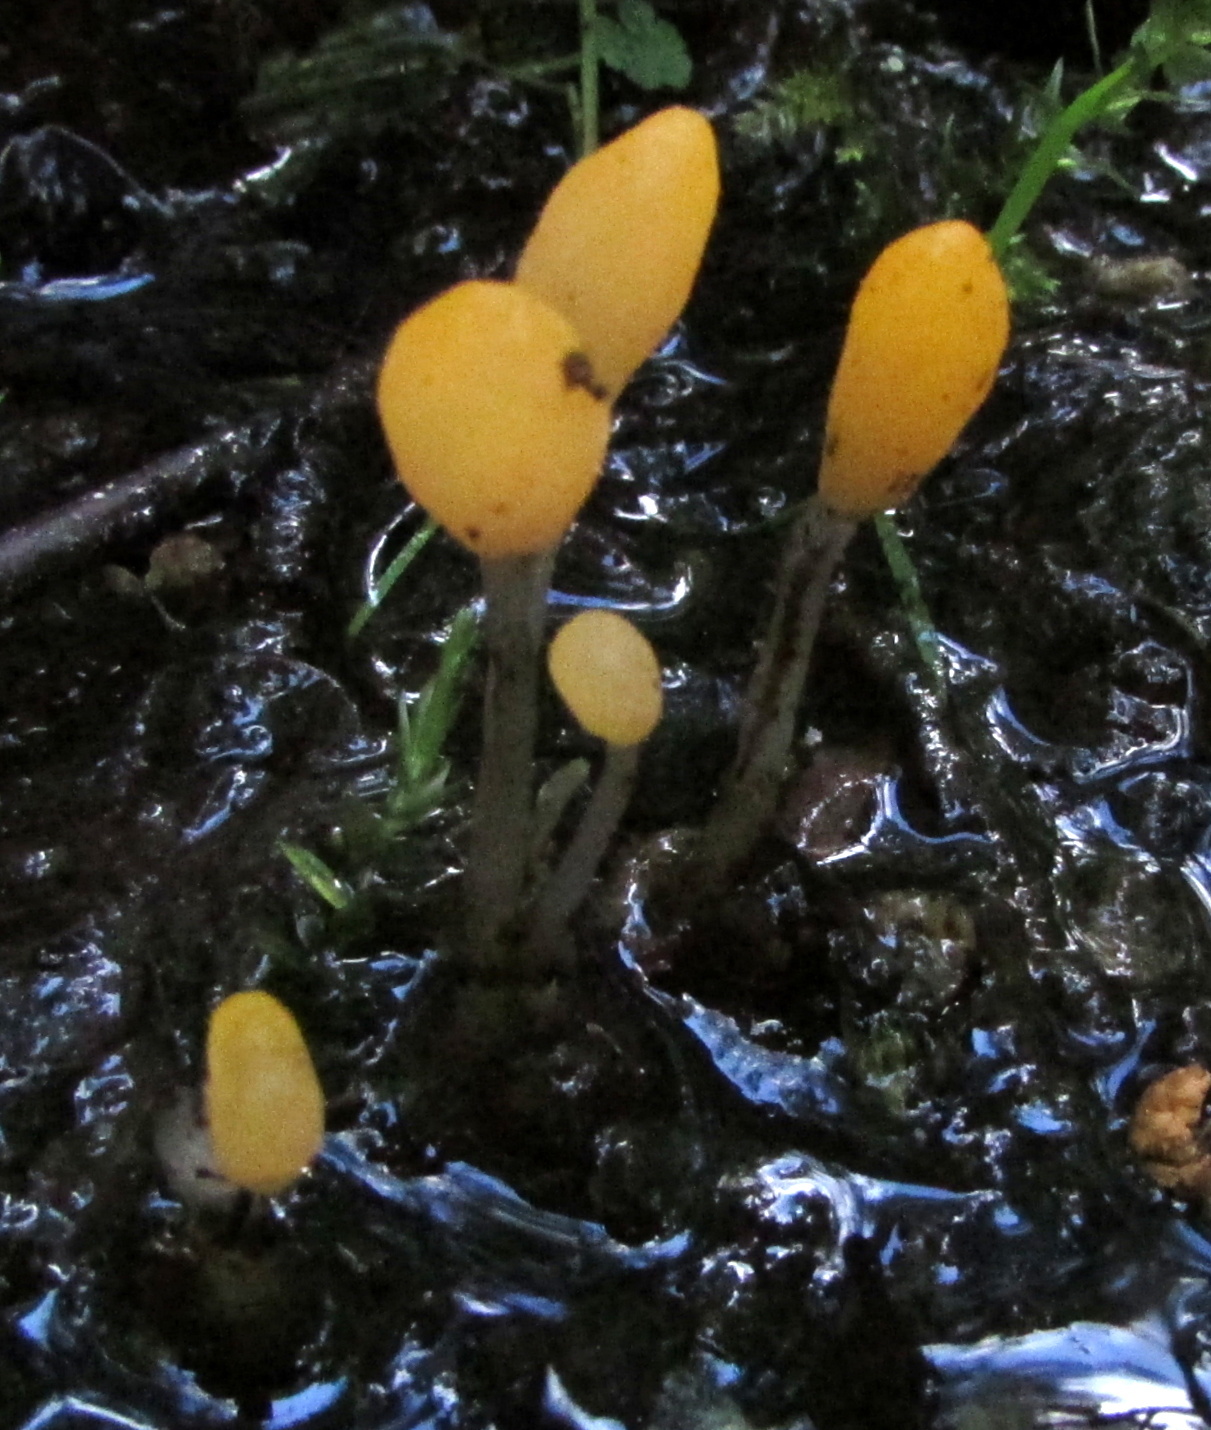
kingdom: Fungi
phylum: Ascomycota
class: Leotiomycetes
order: Helotiales
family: Cenangiaceae
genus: Mitrula
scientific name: Mitrula paludosa
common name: Bog beacon
